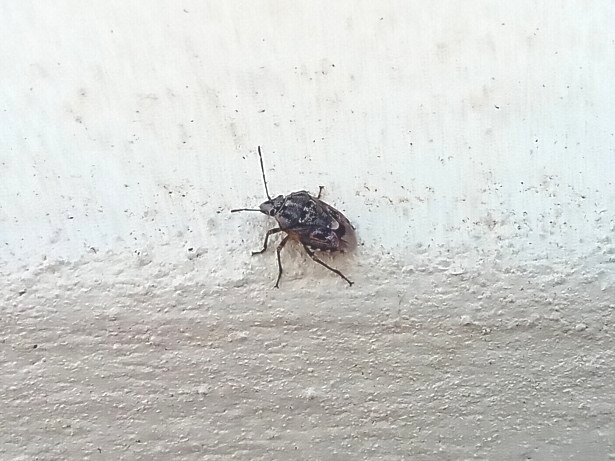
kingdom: Animalia
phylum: Arthropoda
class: Insecta
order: Hemiptera
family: Pentatomidae
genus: Holcogaster
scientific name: Holcogaster fibulata
